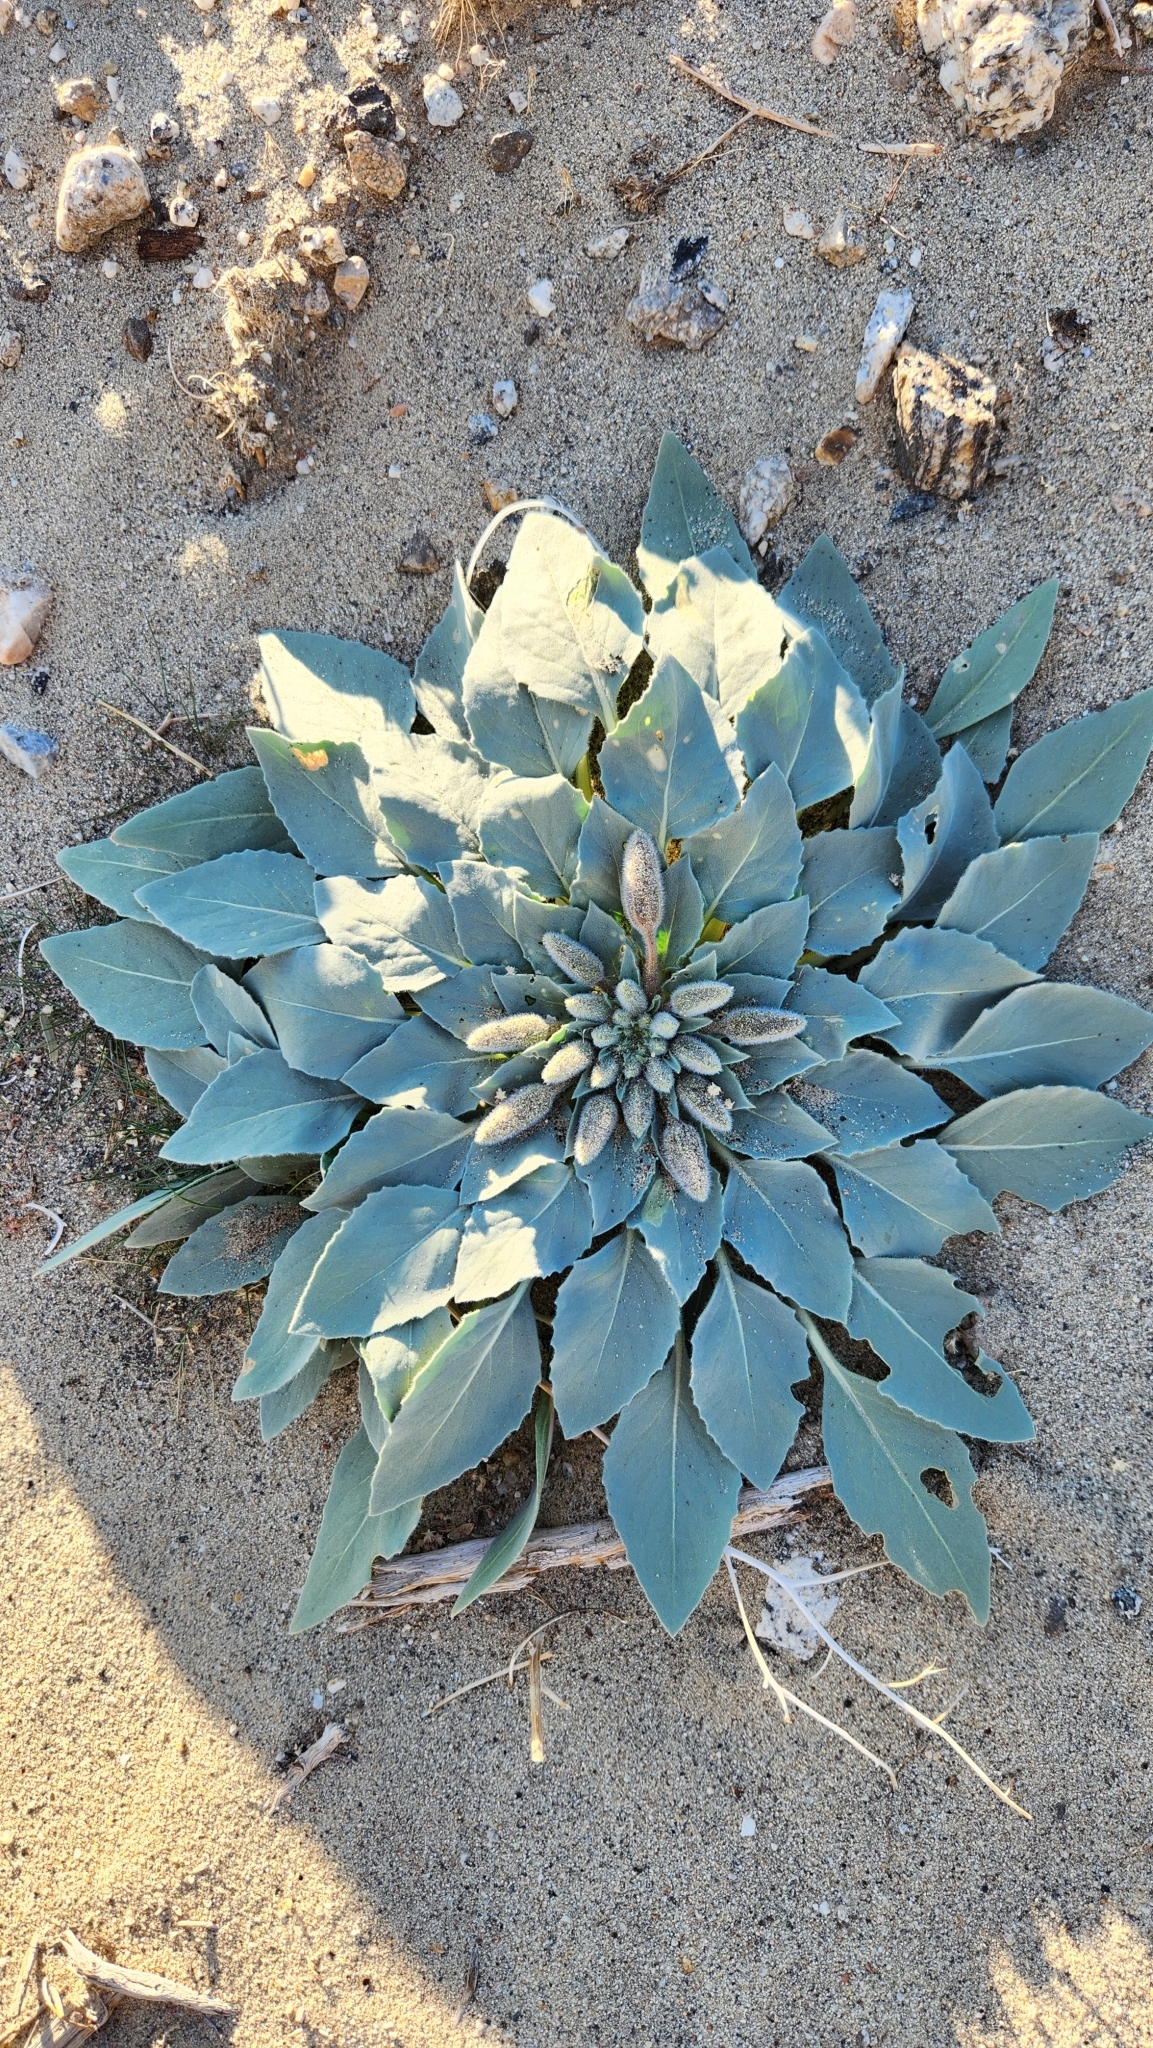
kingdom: Plantae
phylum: Tracheophyta
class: Magnoliopsida
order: Myrtales
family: Onagraceae
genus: Oenothera
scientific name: Oenothera deltoides
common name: Basket evening-primrose
